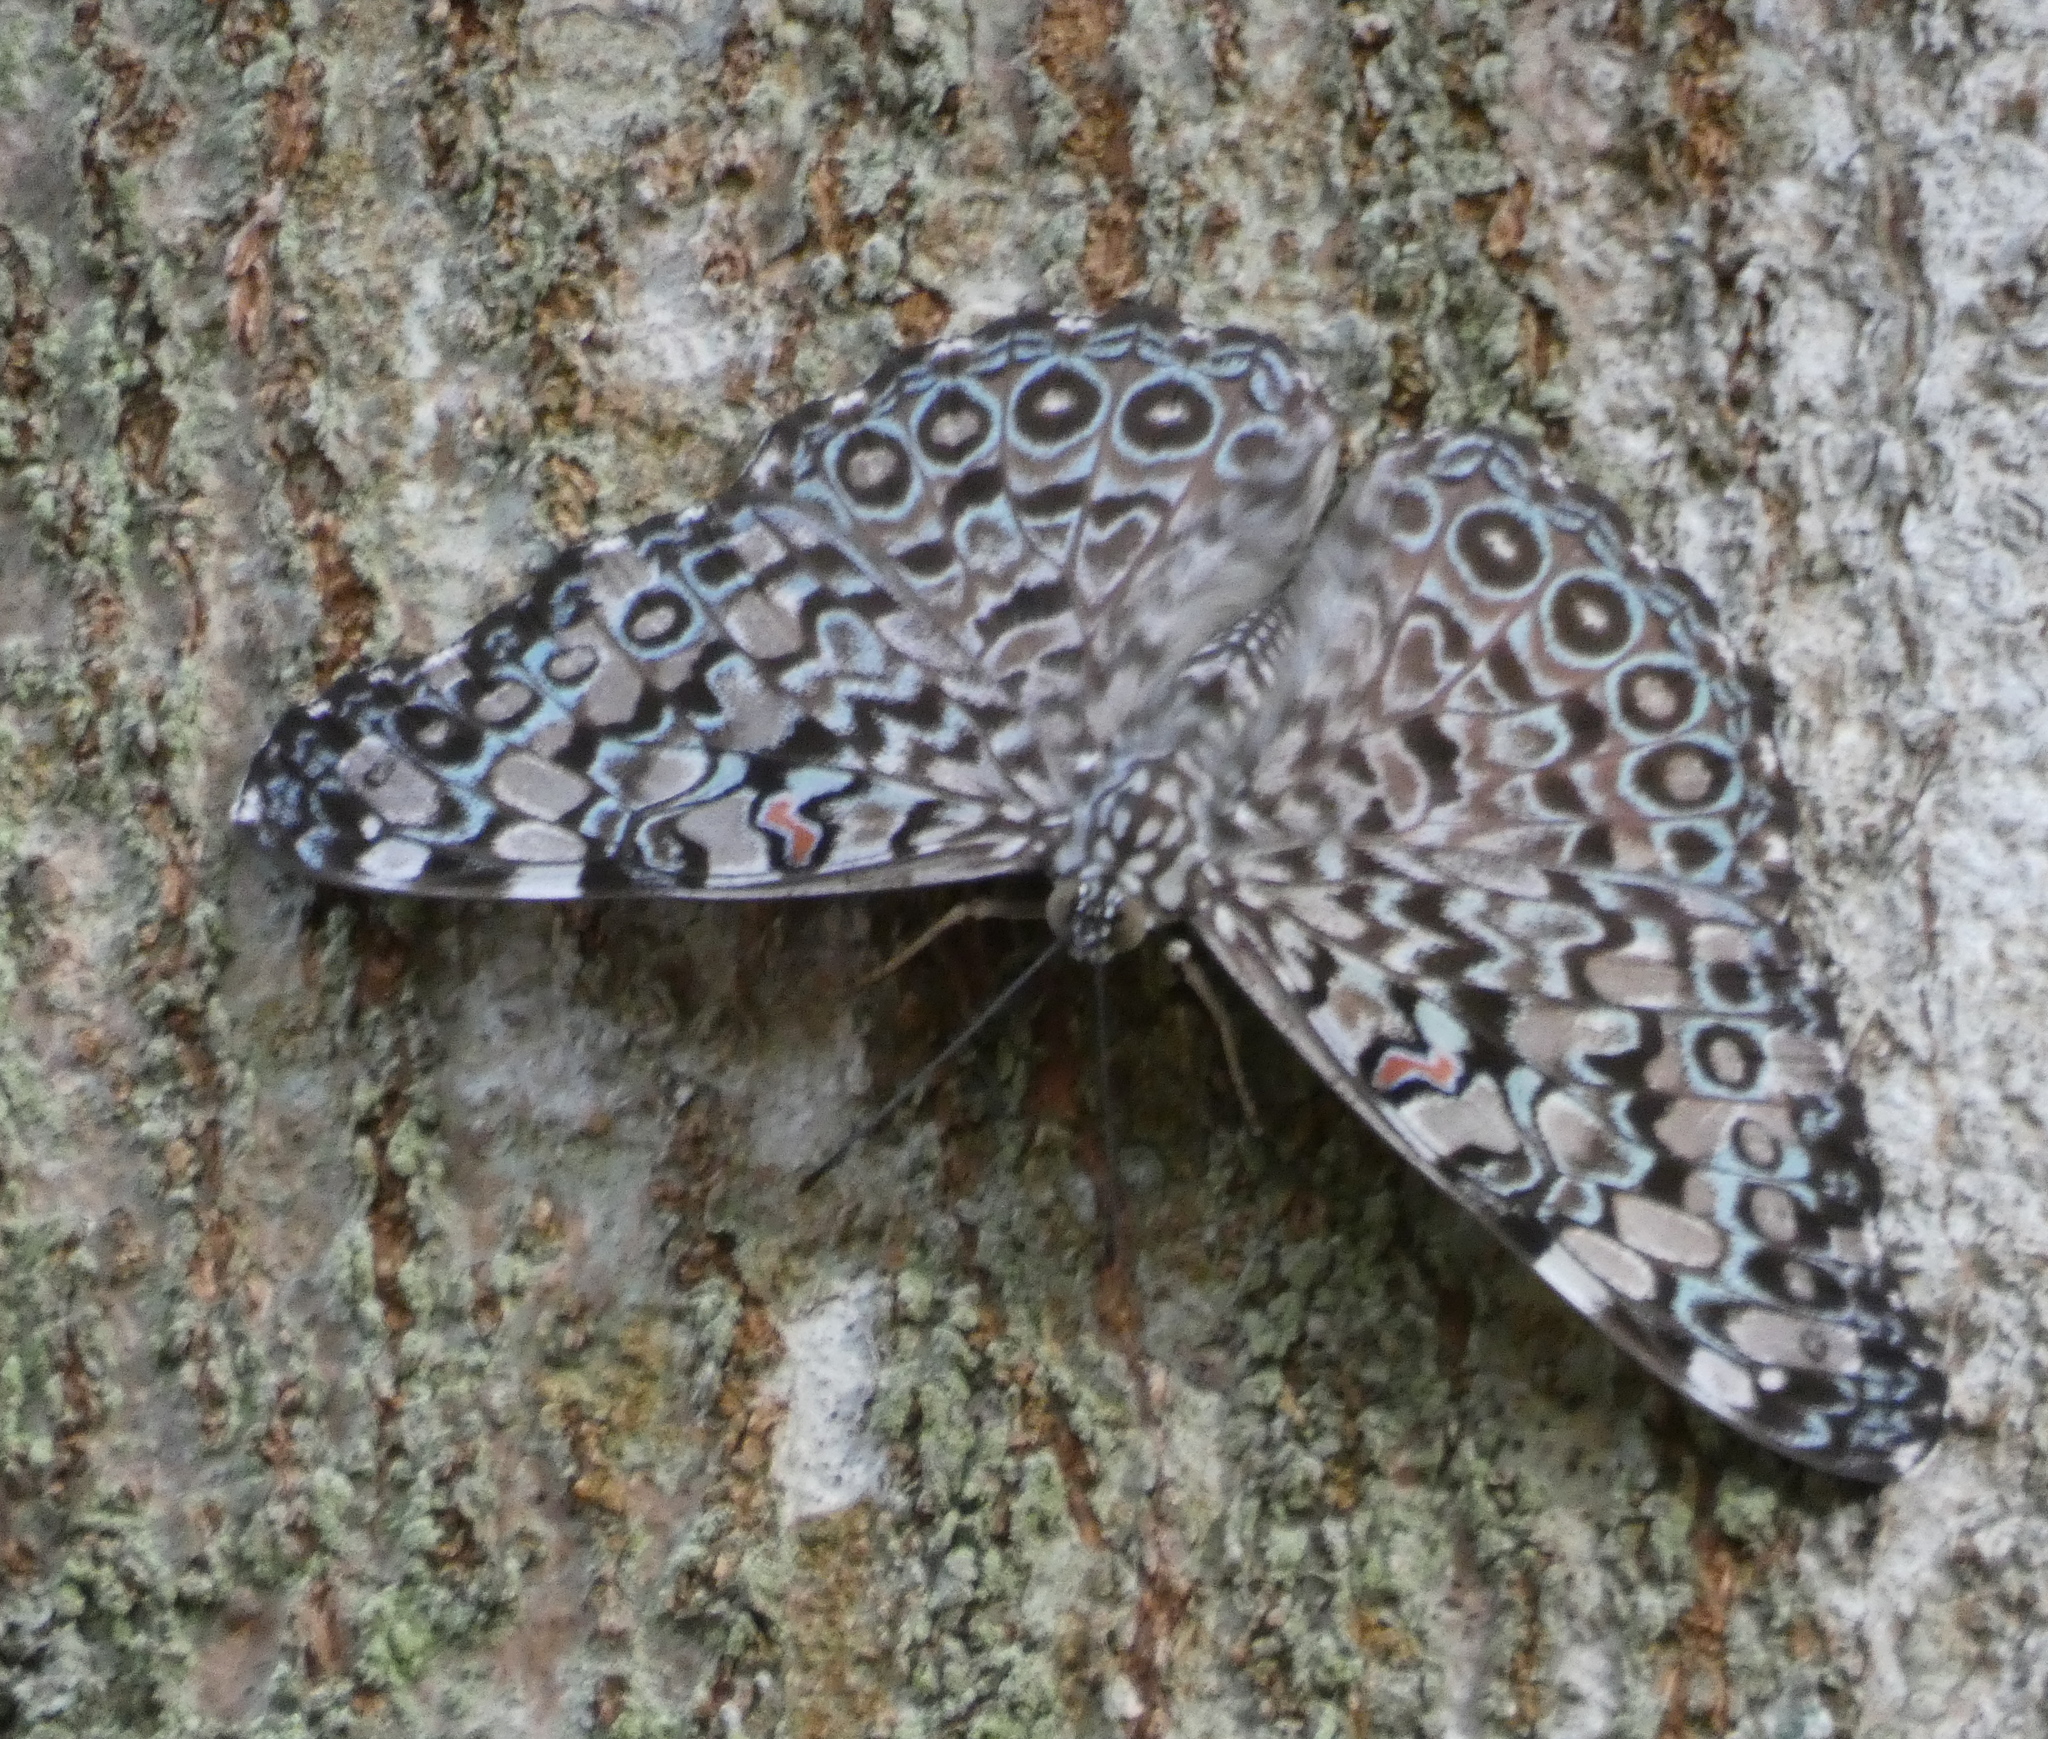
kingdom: Animalia
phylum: Arthropoda
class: Insecta
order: Lepidoptera
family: Nymphalidae
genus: Hamadryas
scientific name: Hamadryas feronia
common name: Variable cracker
